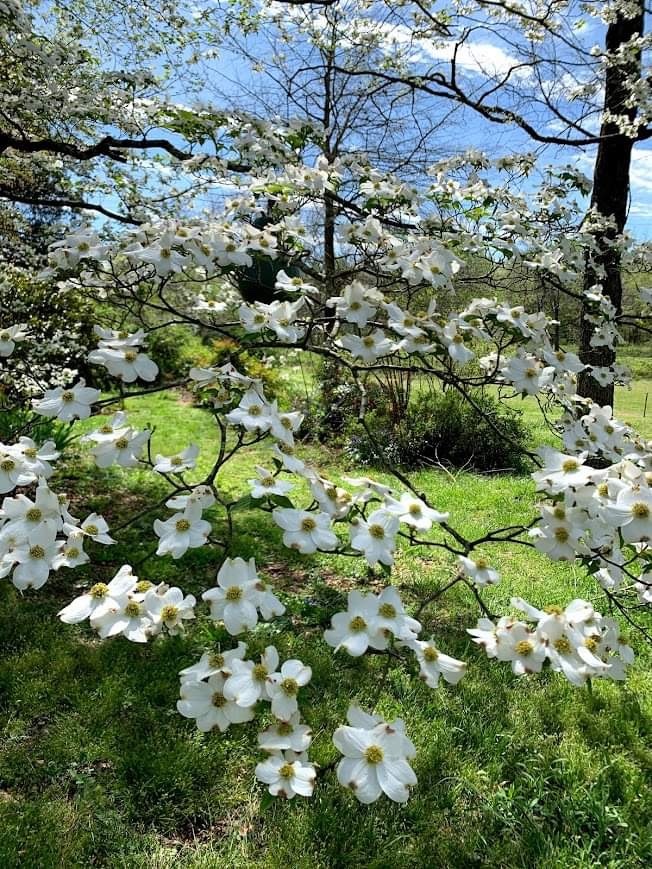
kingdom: Plantae
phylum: Tracheophyta
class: Magnoliopsida
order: Cornales
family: Cornaceae
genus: Cornus
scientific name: Cornus florida
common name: Flowering dogwood
